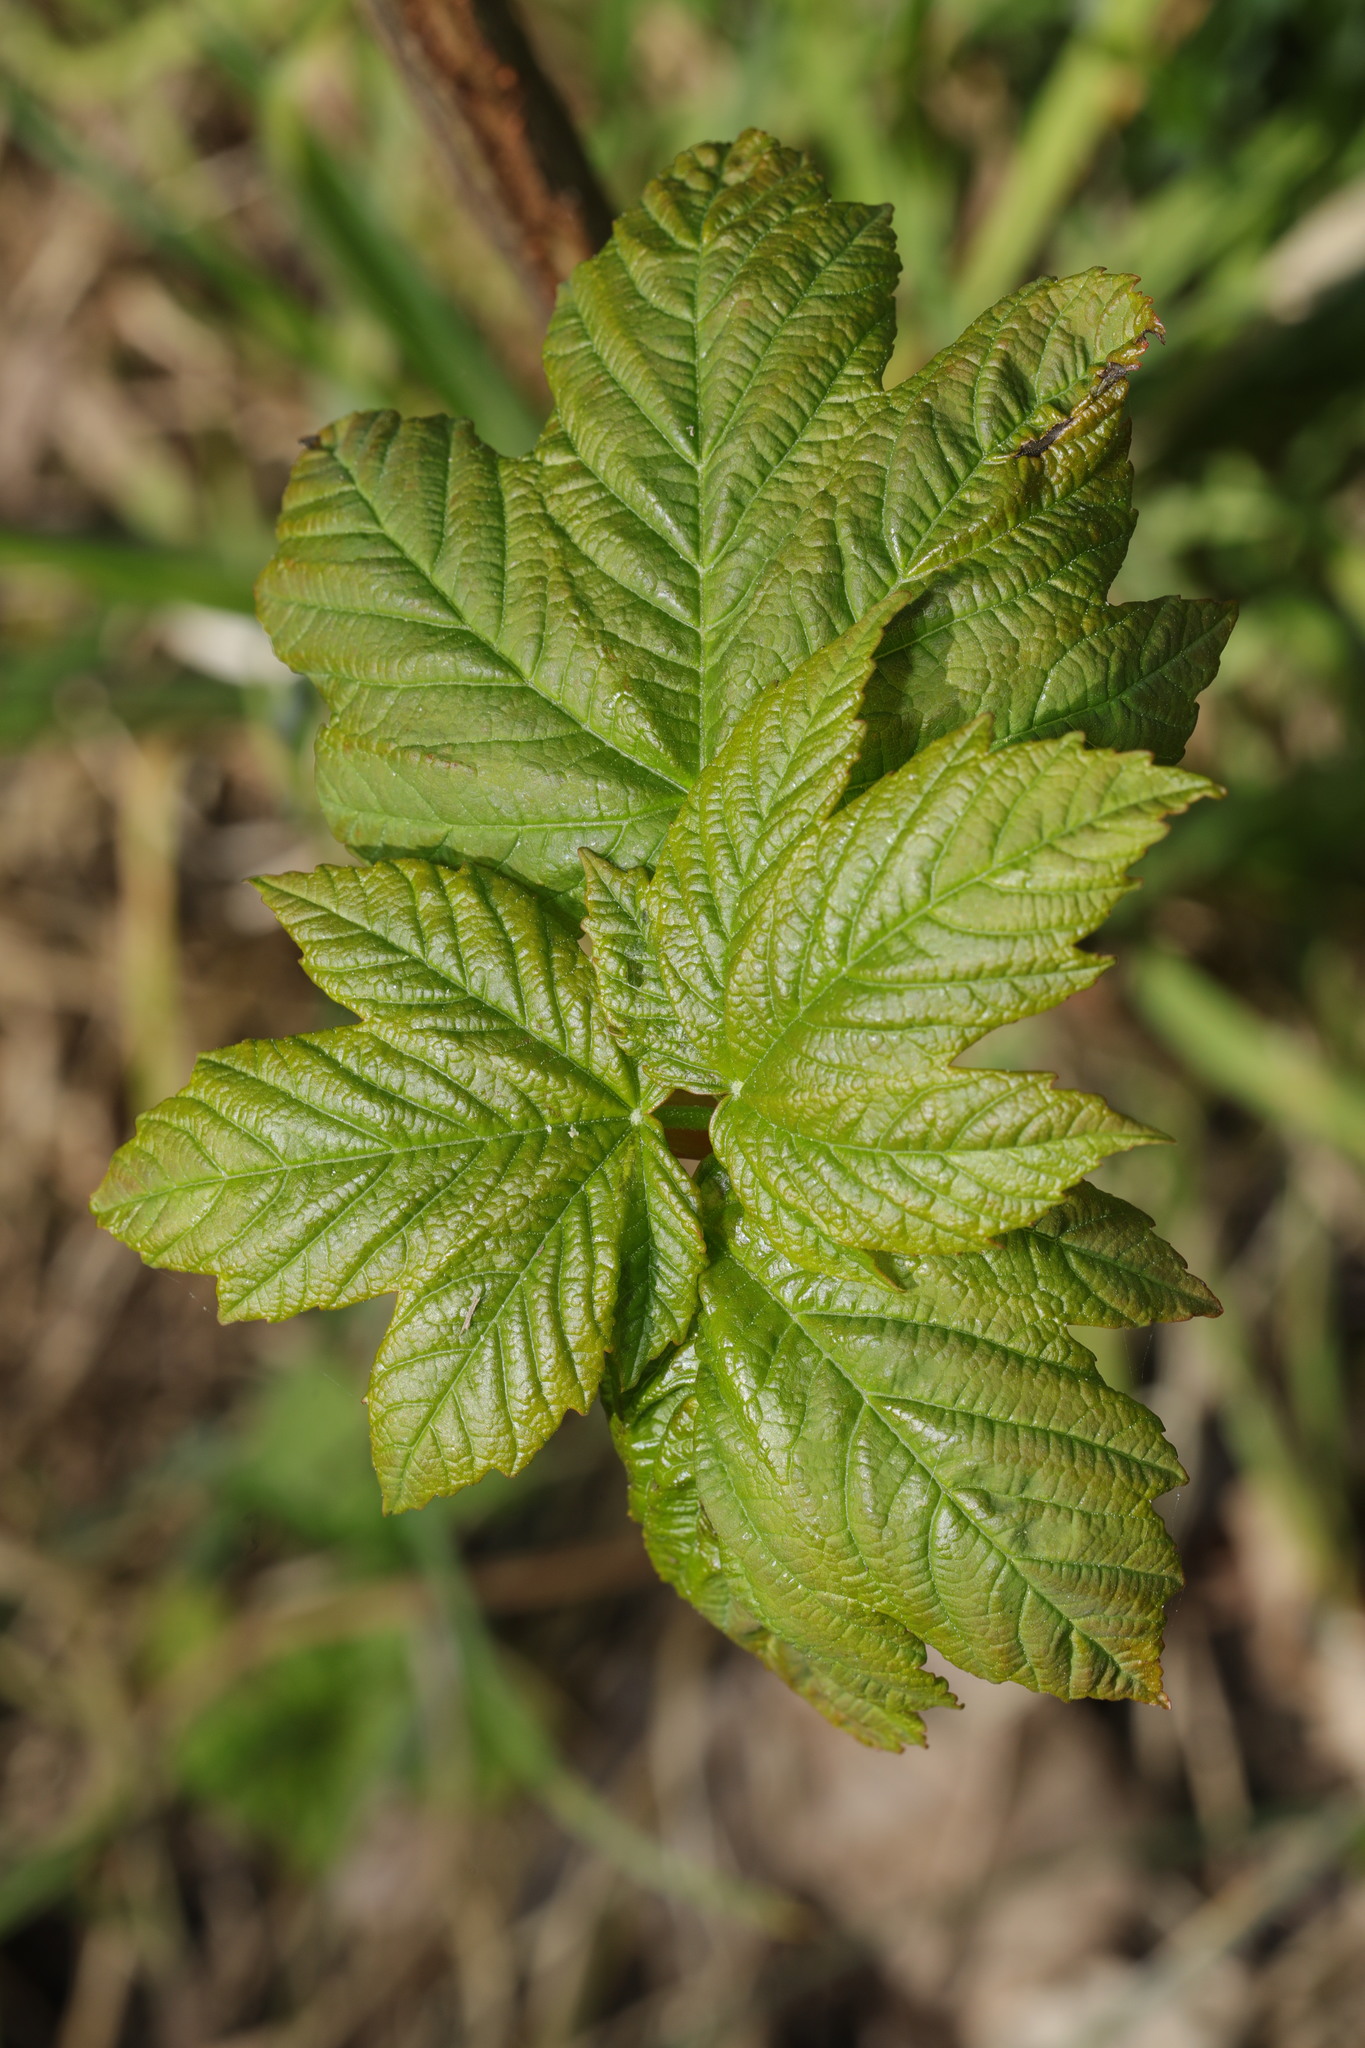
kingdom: Plantae
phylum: Tracheophyta
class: Magnoliopsida
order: Sapindales
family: Sapindaceae
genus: Acer
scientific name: Acer pseudoplatanus
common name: Sycamore
